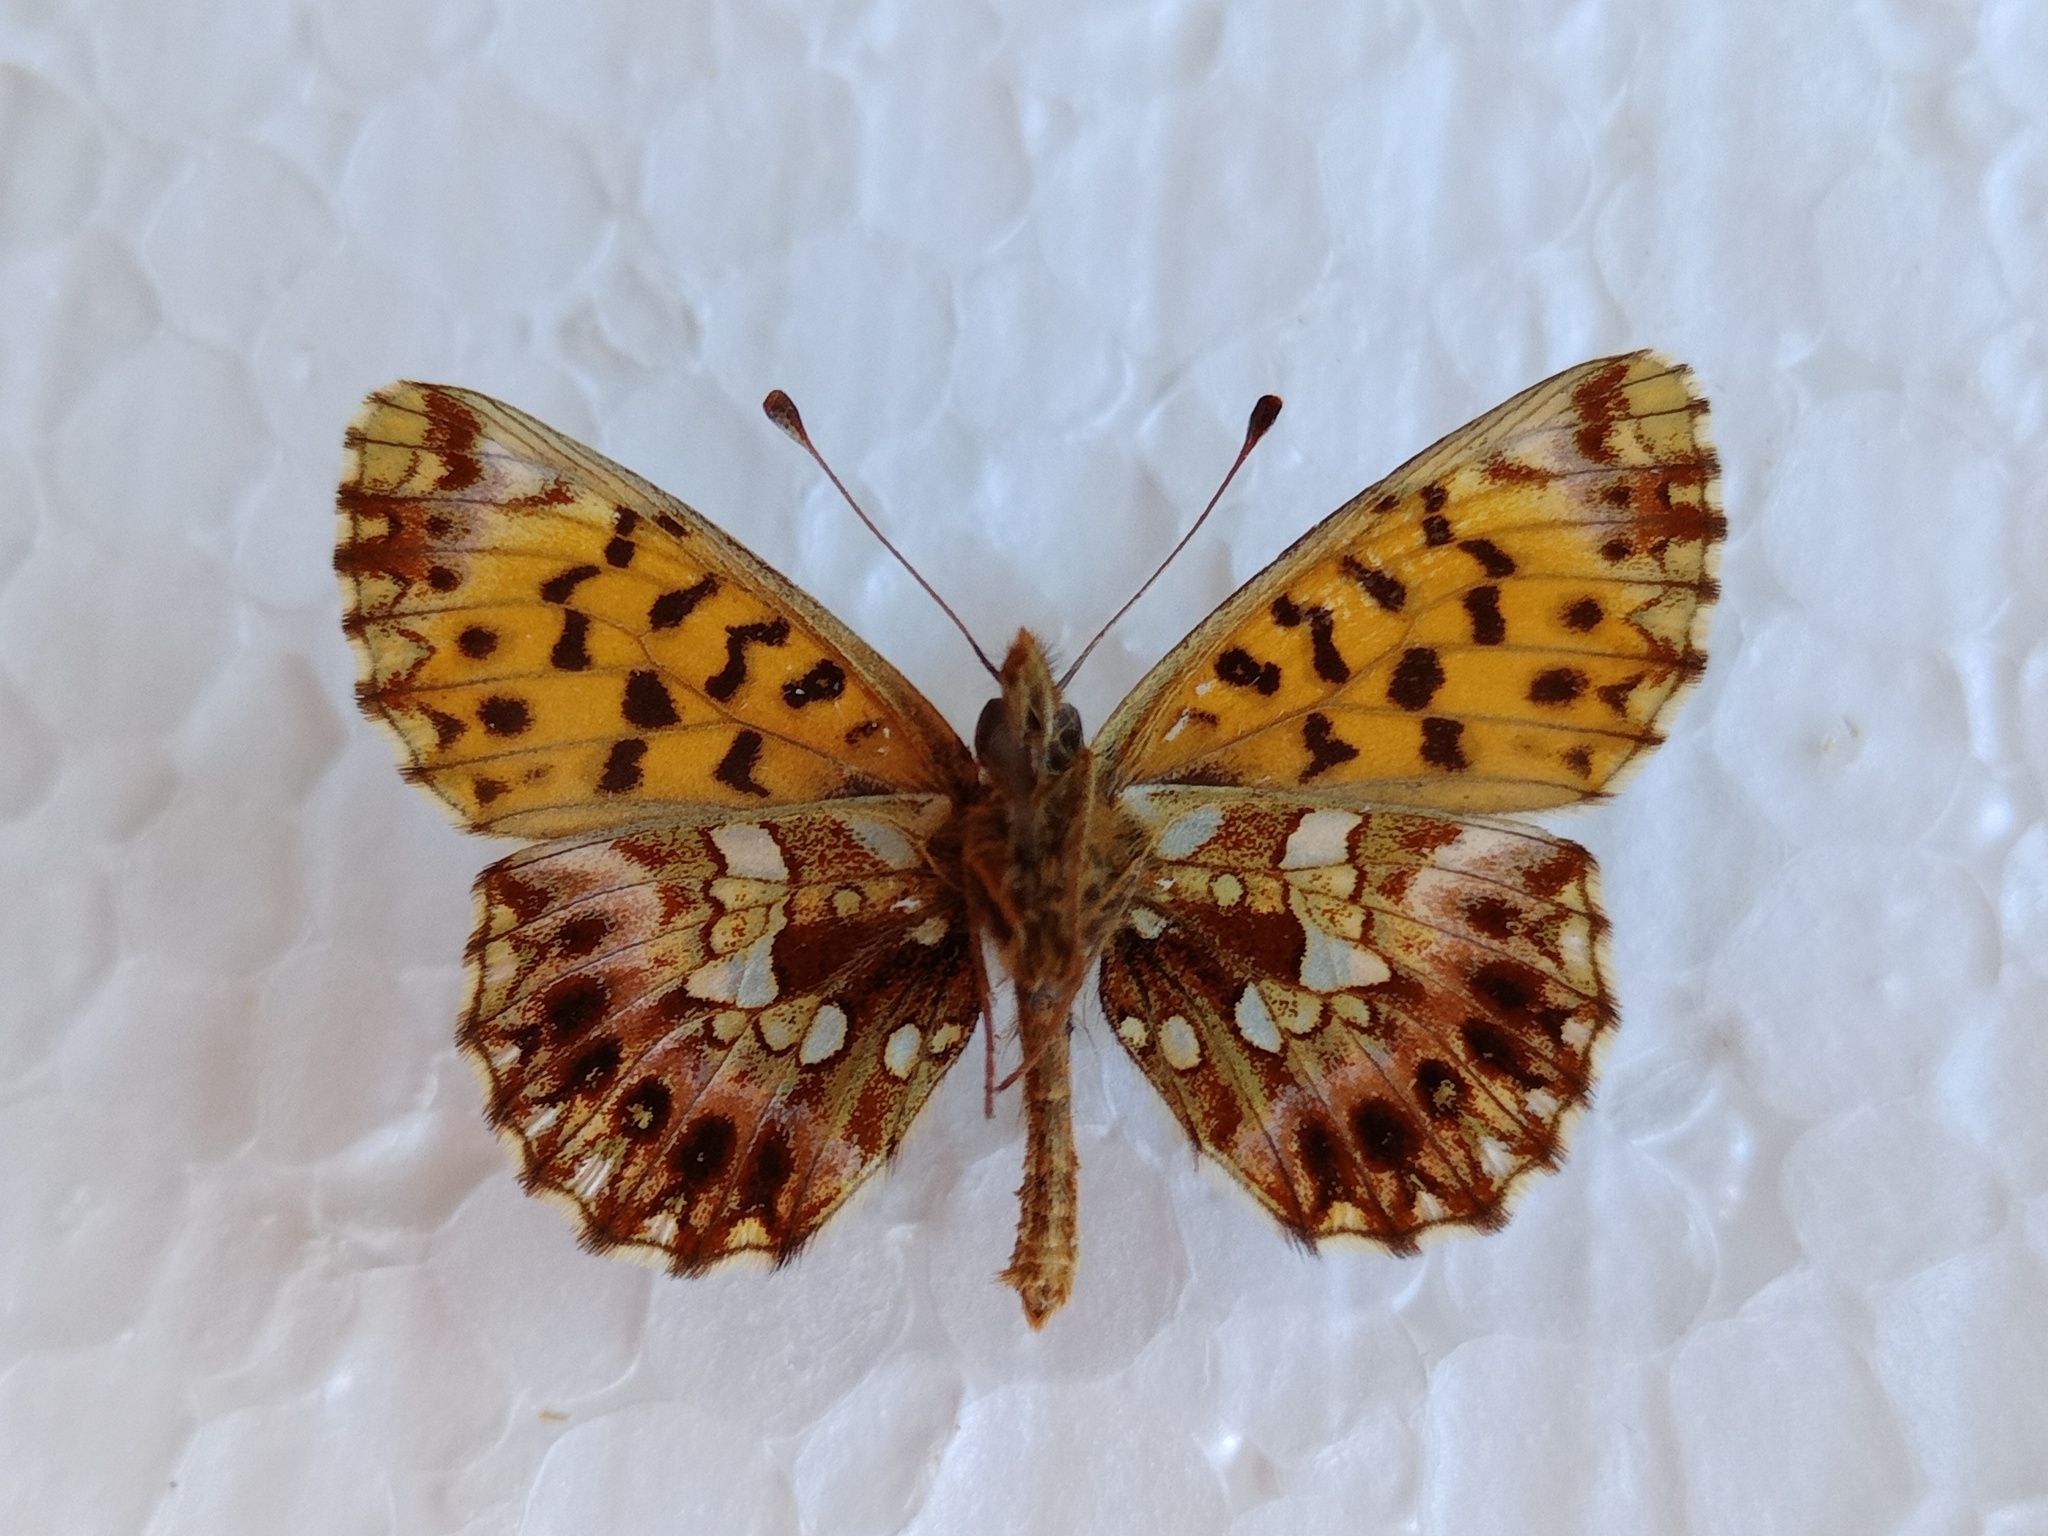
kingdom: Animalia
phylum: Arthropoda
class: Insecta
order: Lepidoptera
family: Nymphalidae
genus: Boloria
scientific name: Boloria dia
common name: Weaver's fritillary
